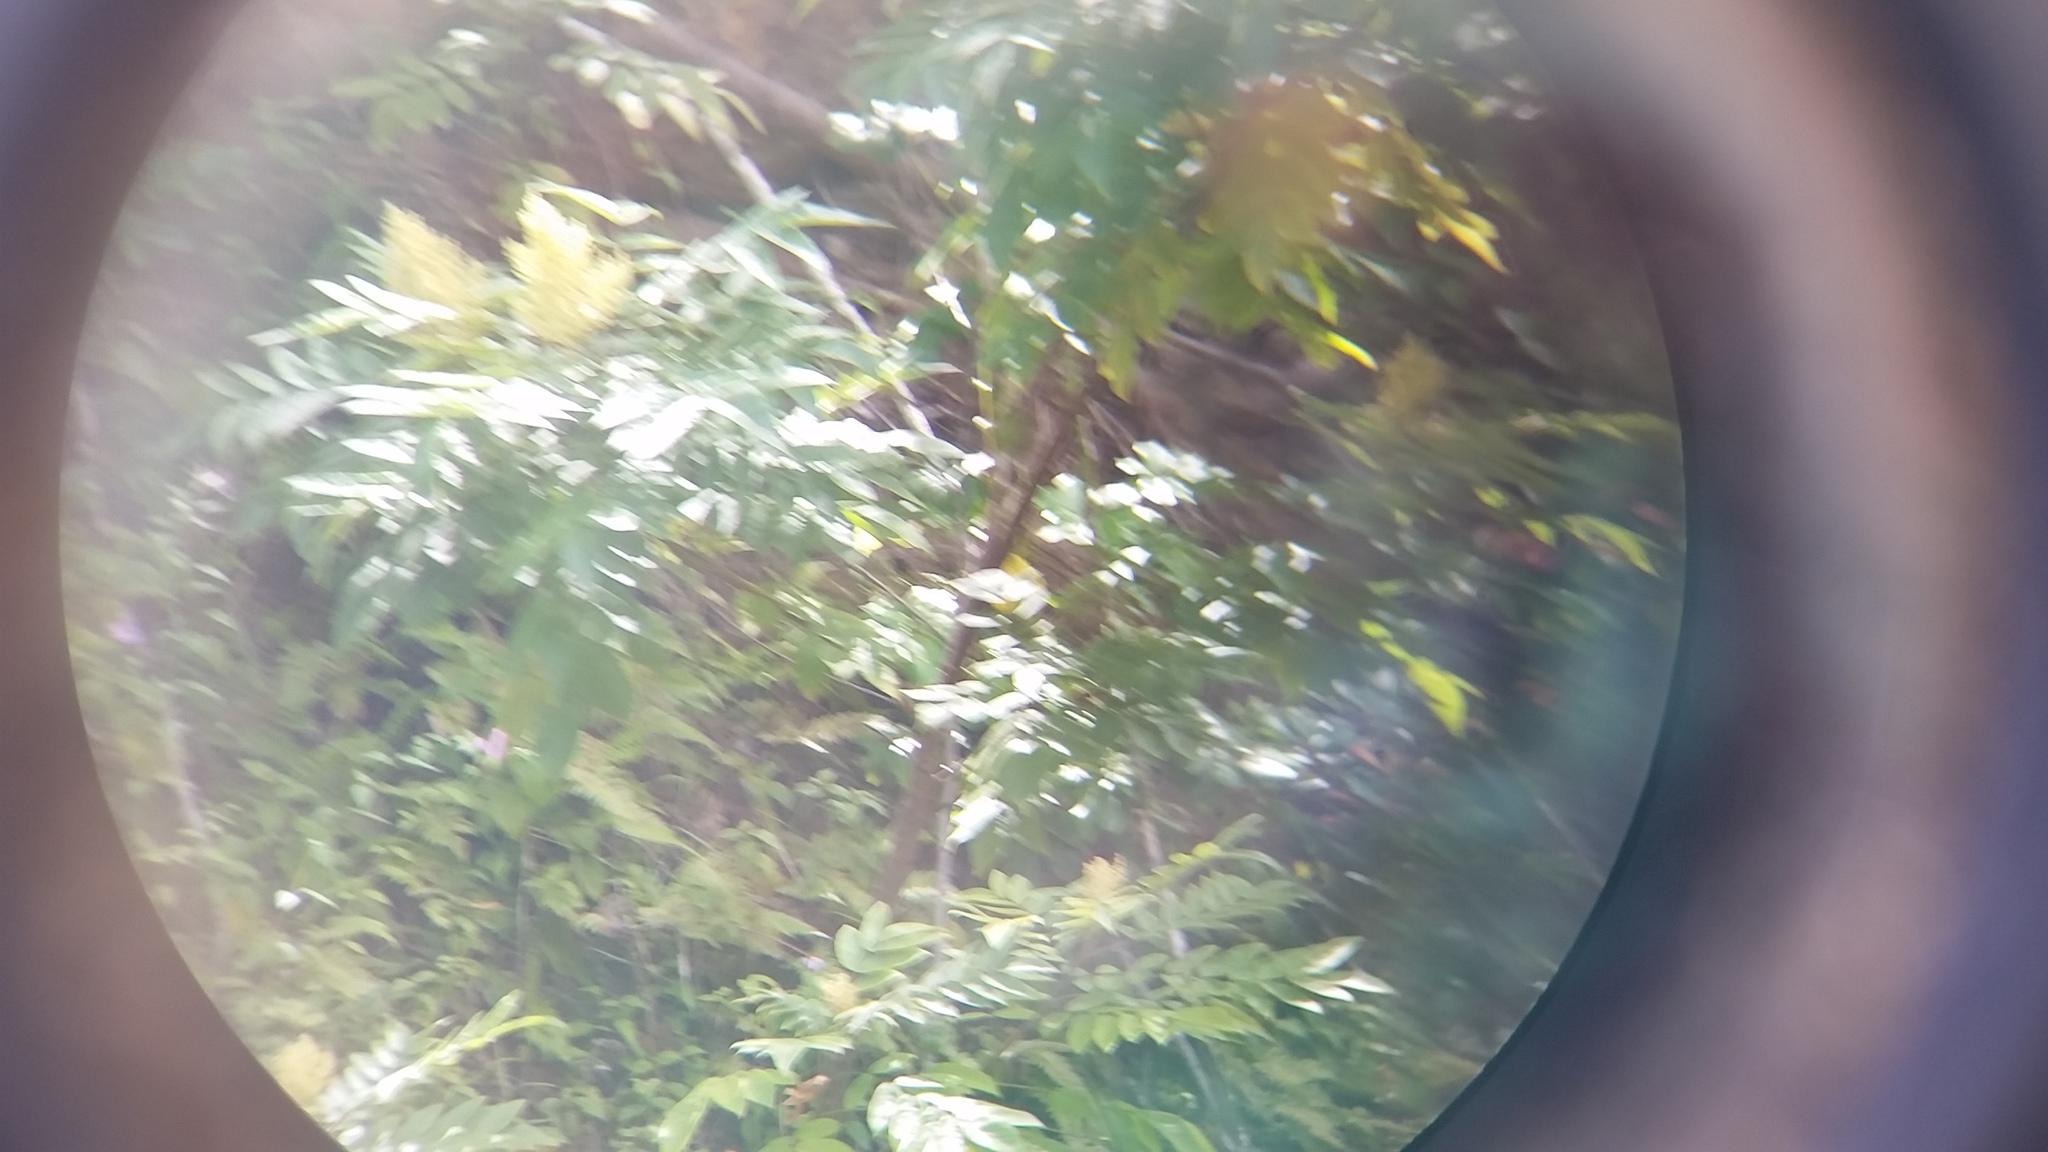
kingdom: Plantae
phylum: Tracheophyta
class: Magnoliopsida
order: Sapindales
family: Anacardiaceae
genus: Rhus
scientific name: Rhus sandwicensis
